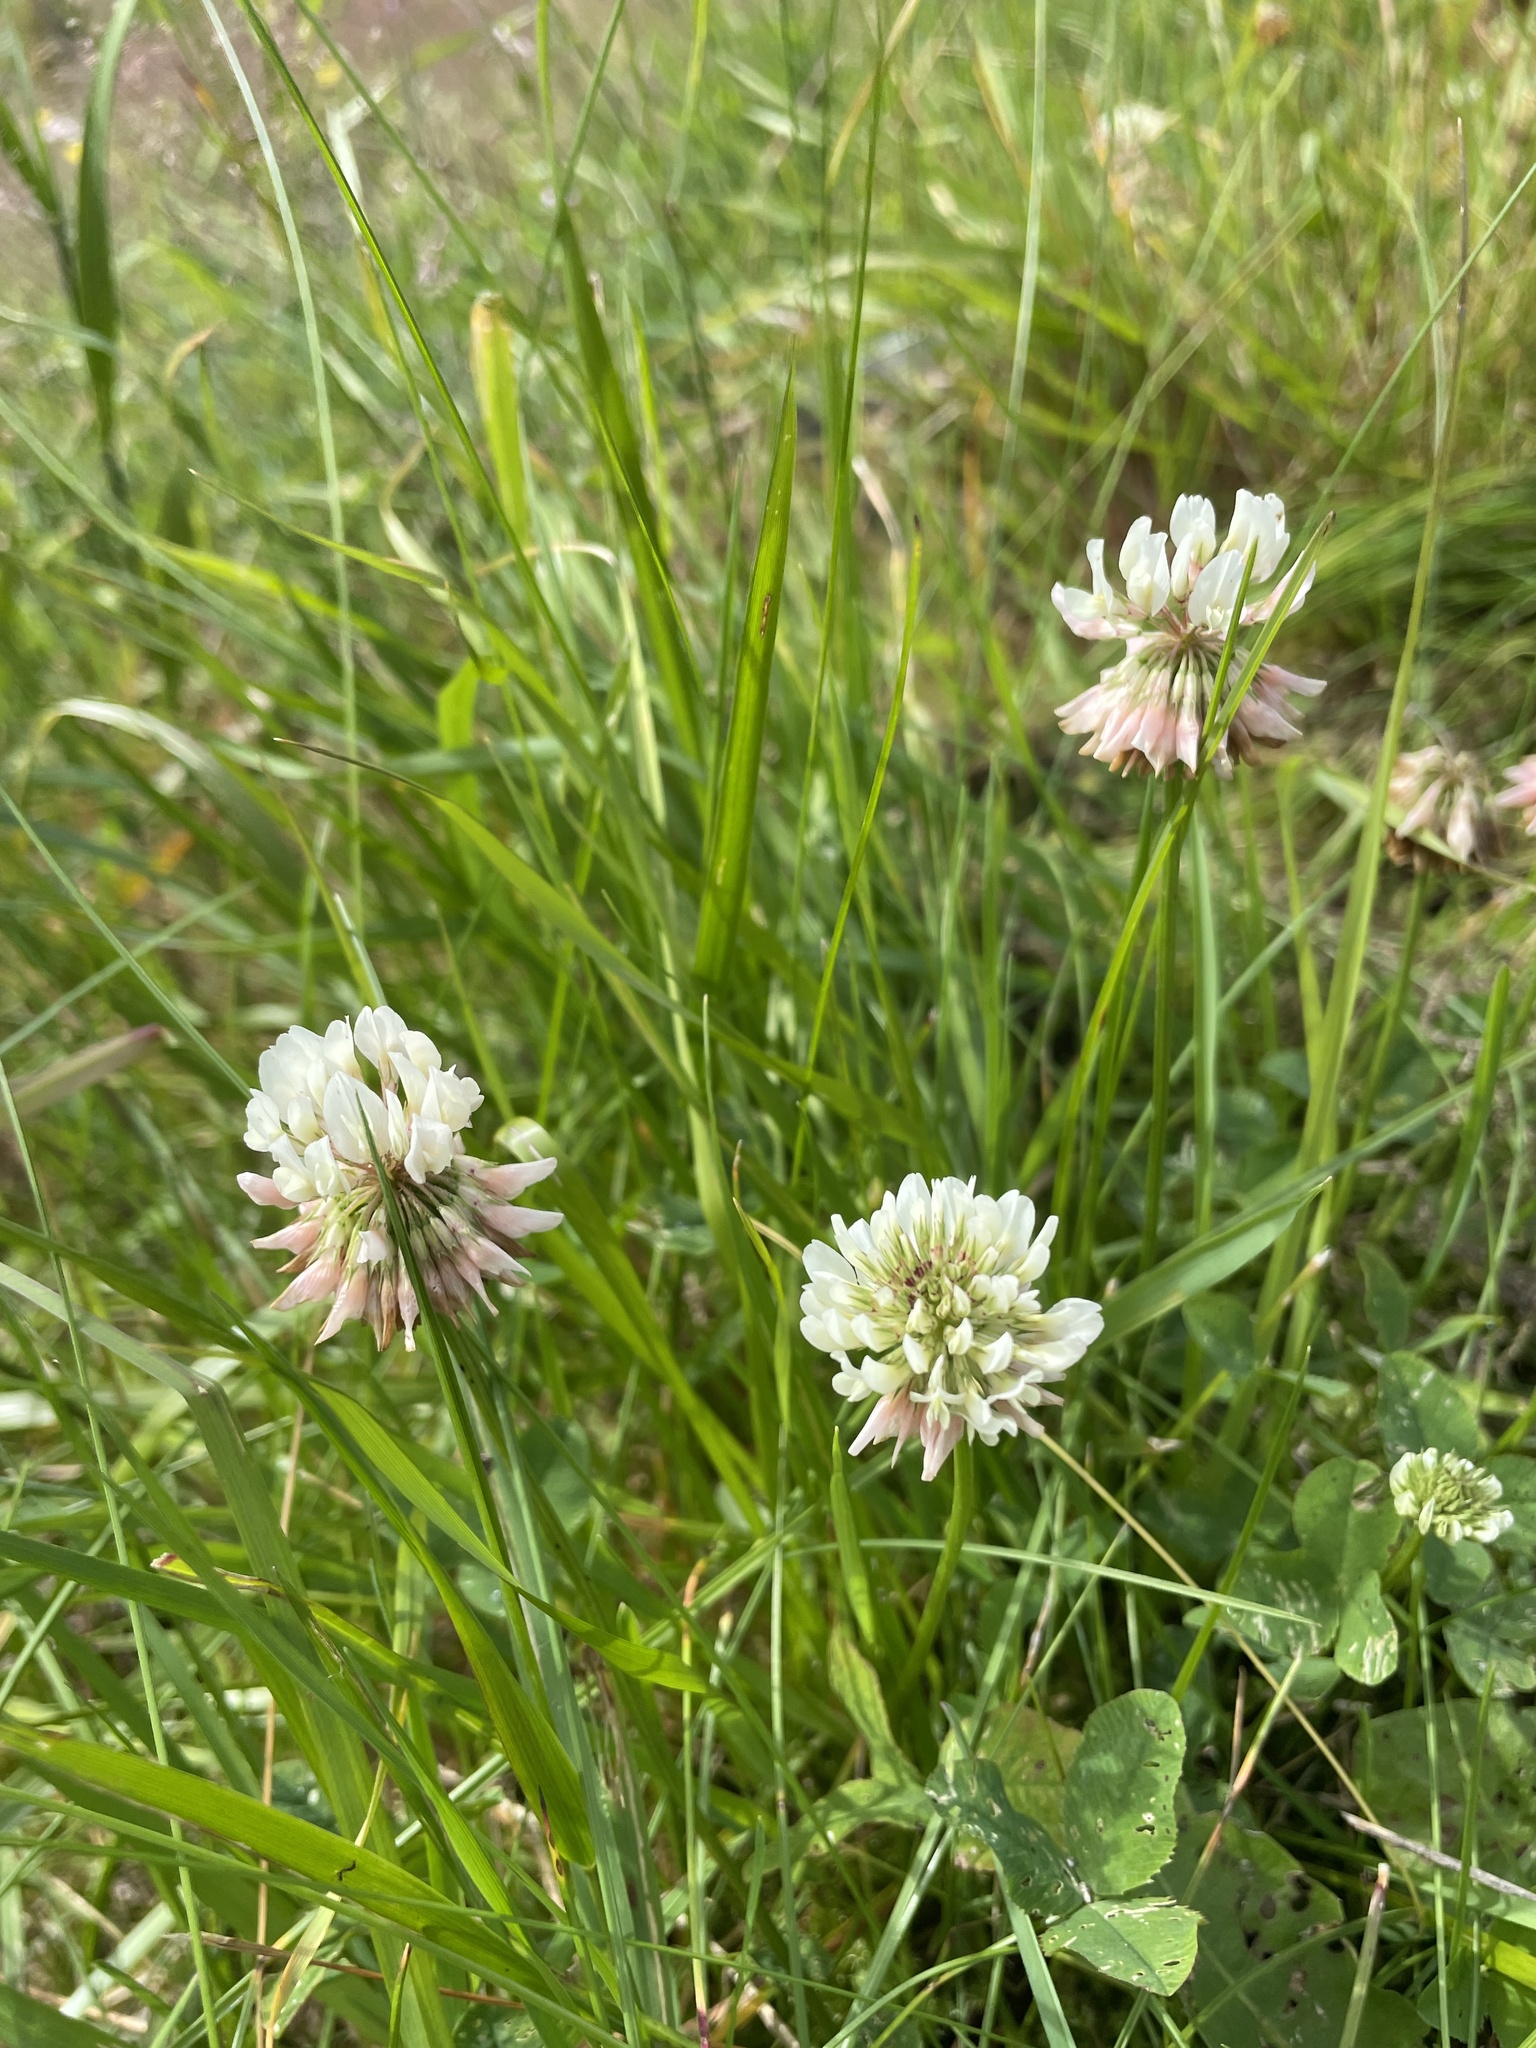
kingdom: Plantae
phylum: Tracheophyta
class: Magnoliopsida
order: Fabales
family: Fabaceae
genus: Trifolium
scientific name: Trifolium repens
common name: White clover
